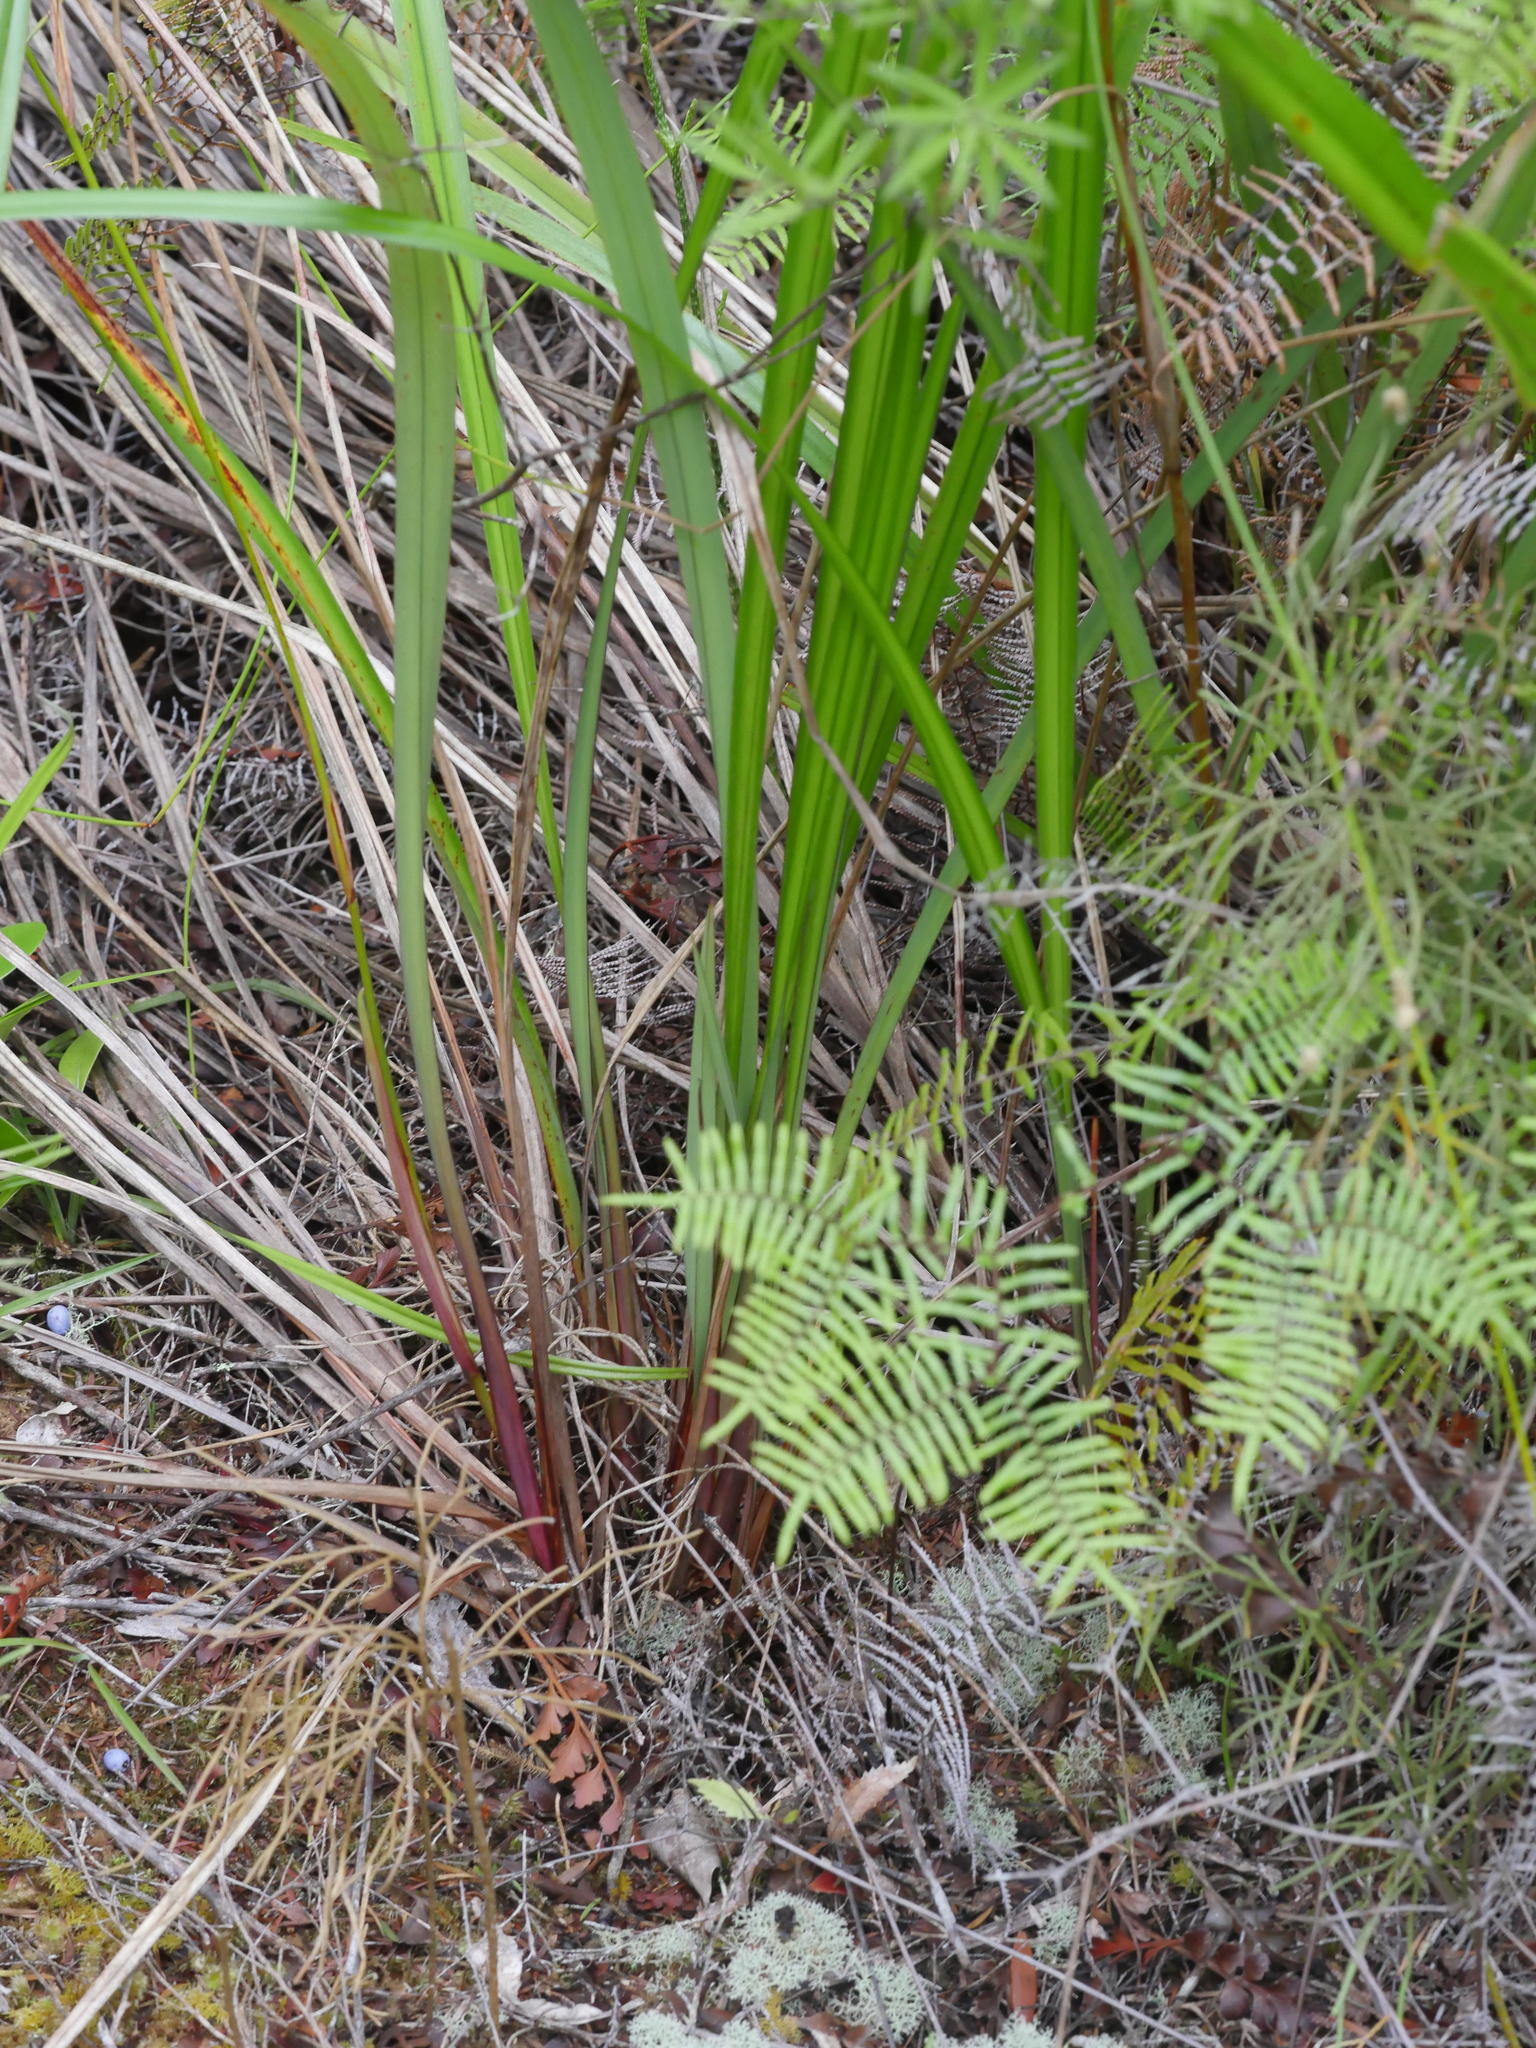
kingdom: Plantae
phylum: Tracheophyta
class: Liliopsida
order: Asparagales
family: Asphodelaceae
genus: Dianella
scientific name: Dianella nigra
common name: New zealand-blueberry
